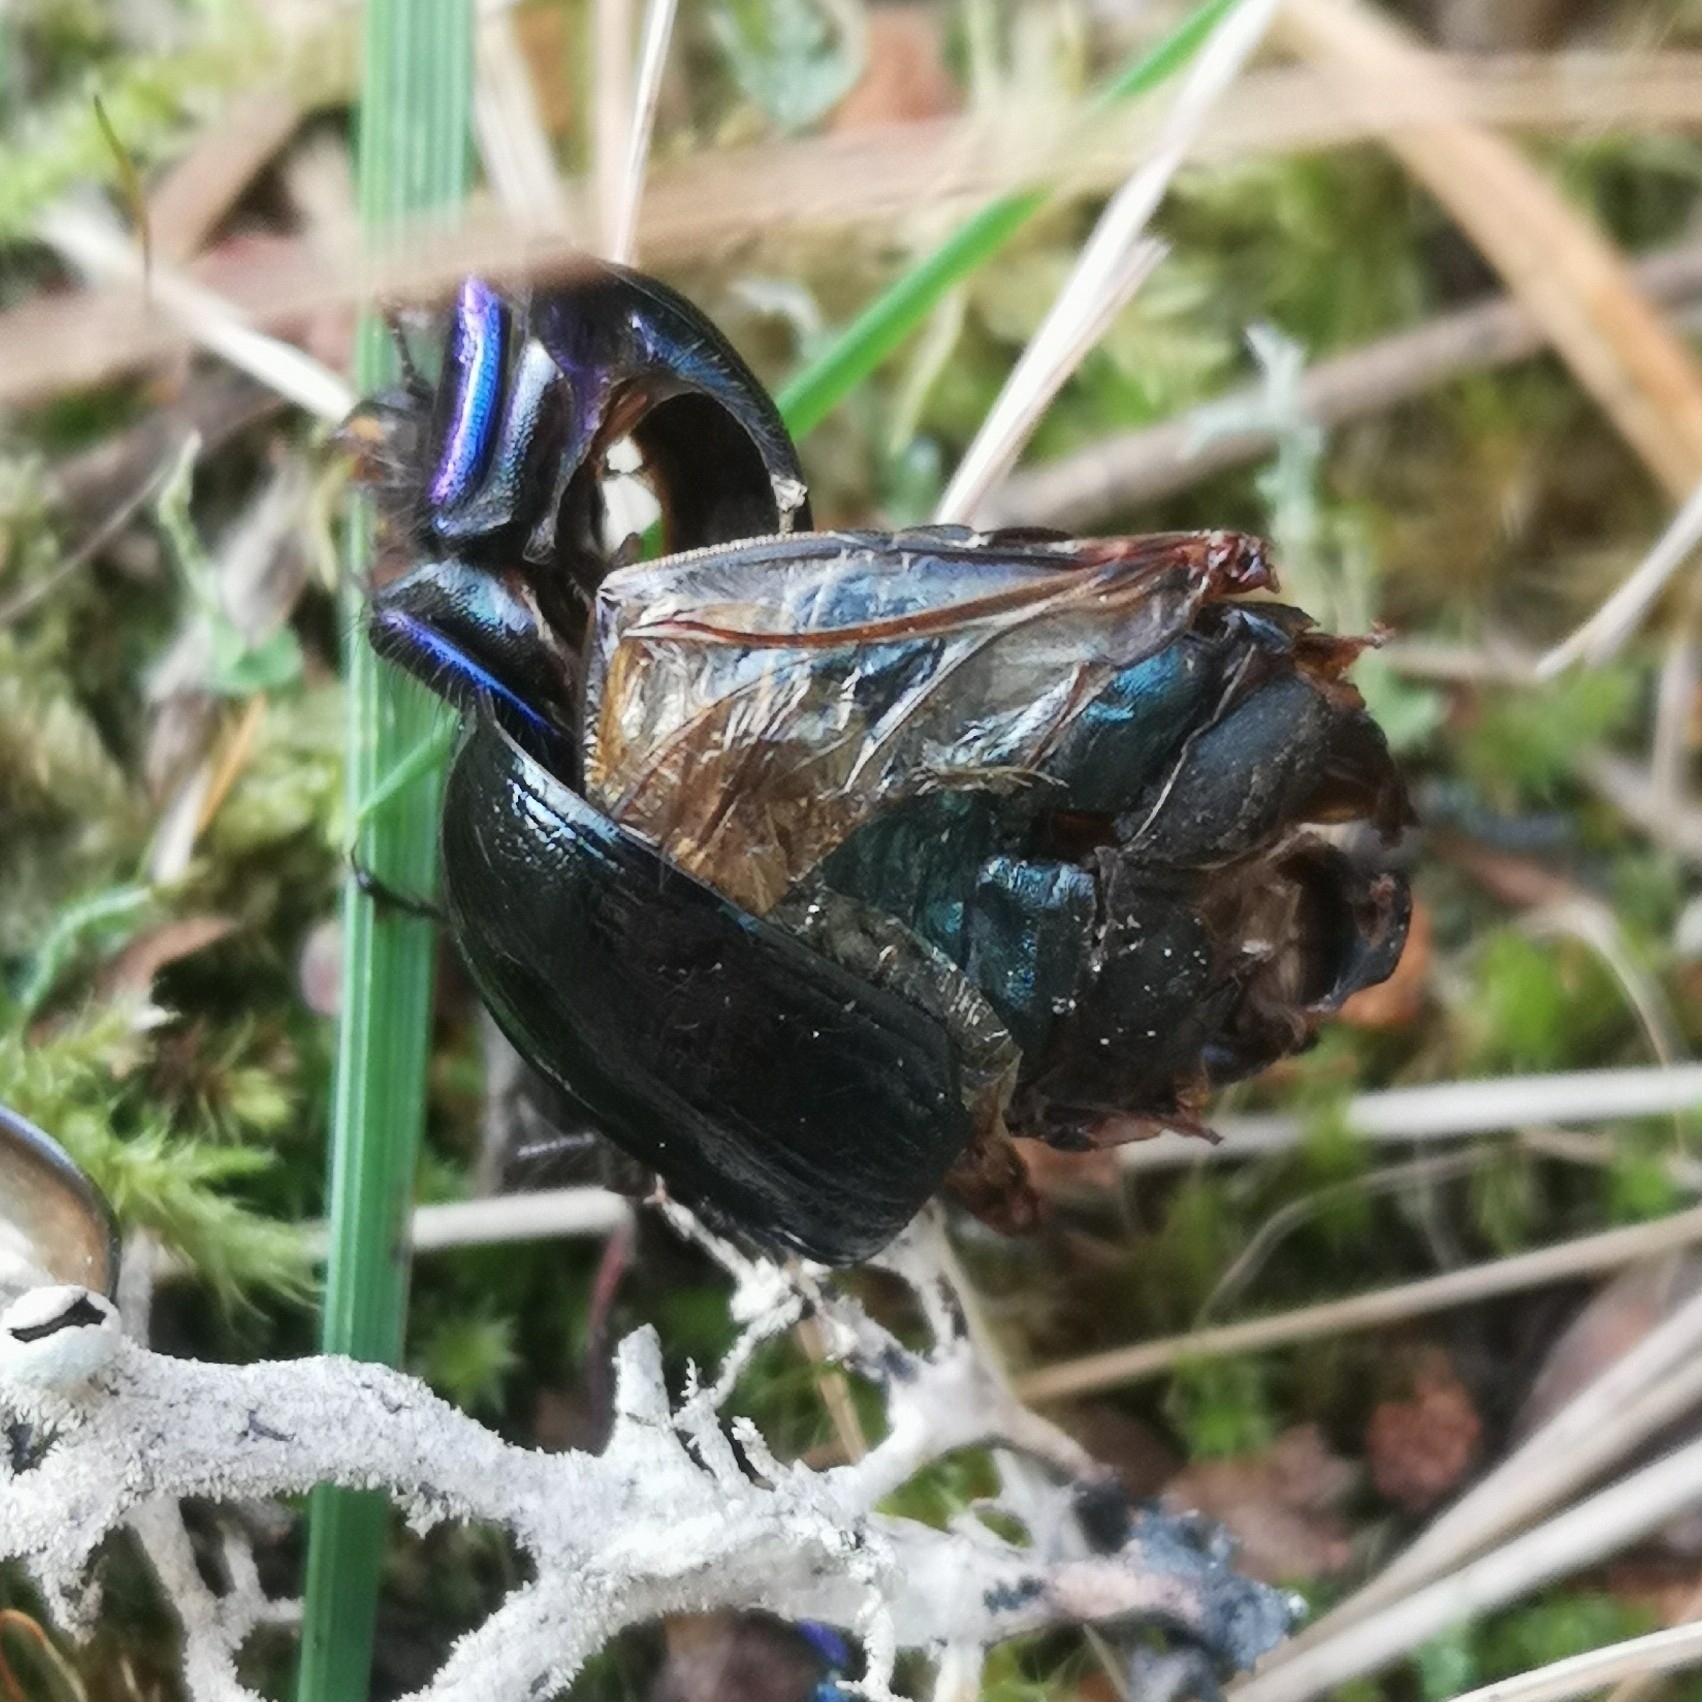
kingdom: Animalia
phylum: Arthropoda
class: Insecta
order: Coleoptera
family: Geotrupidae
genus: Anoplotrupes
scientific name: Anoplotrupes stercorosus
